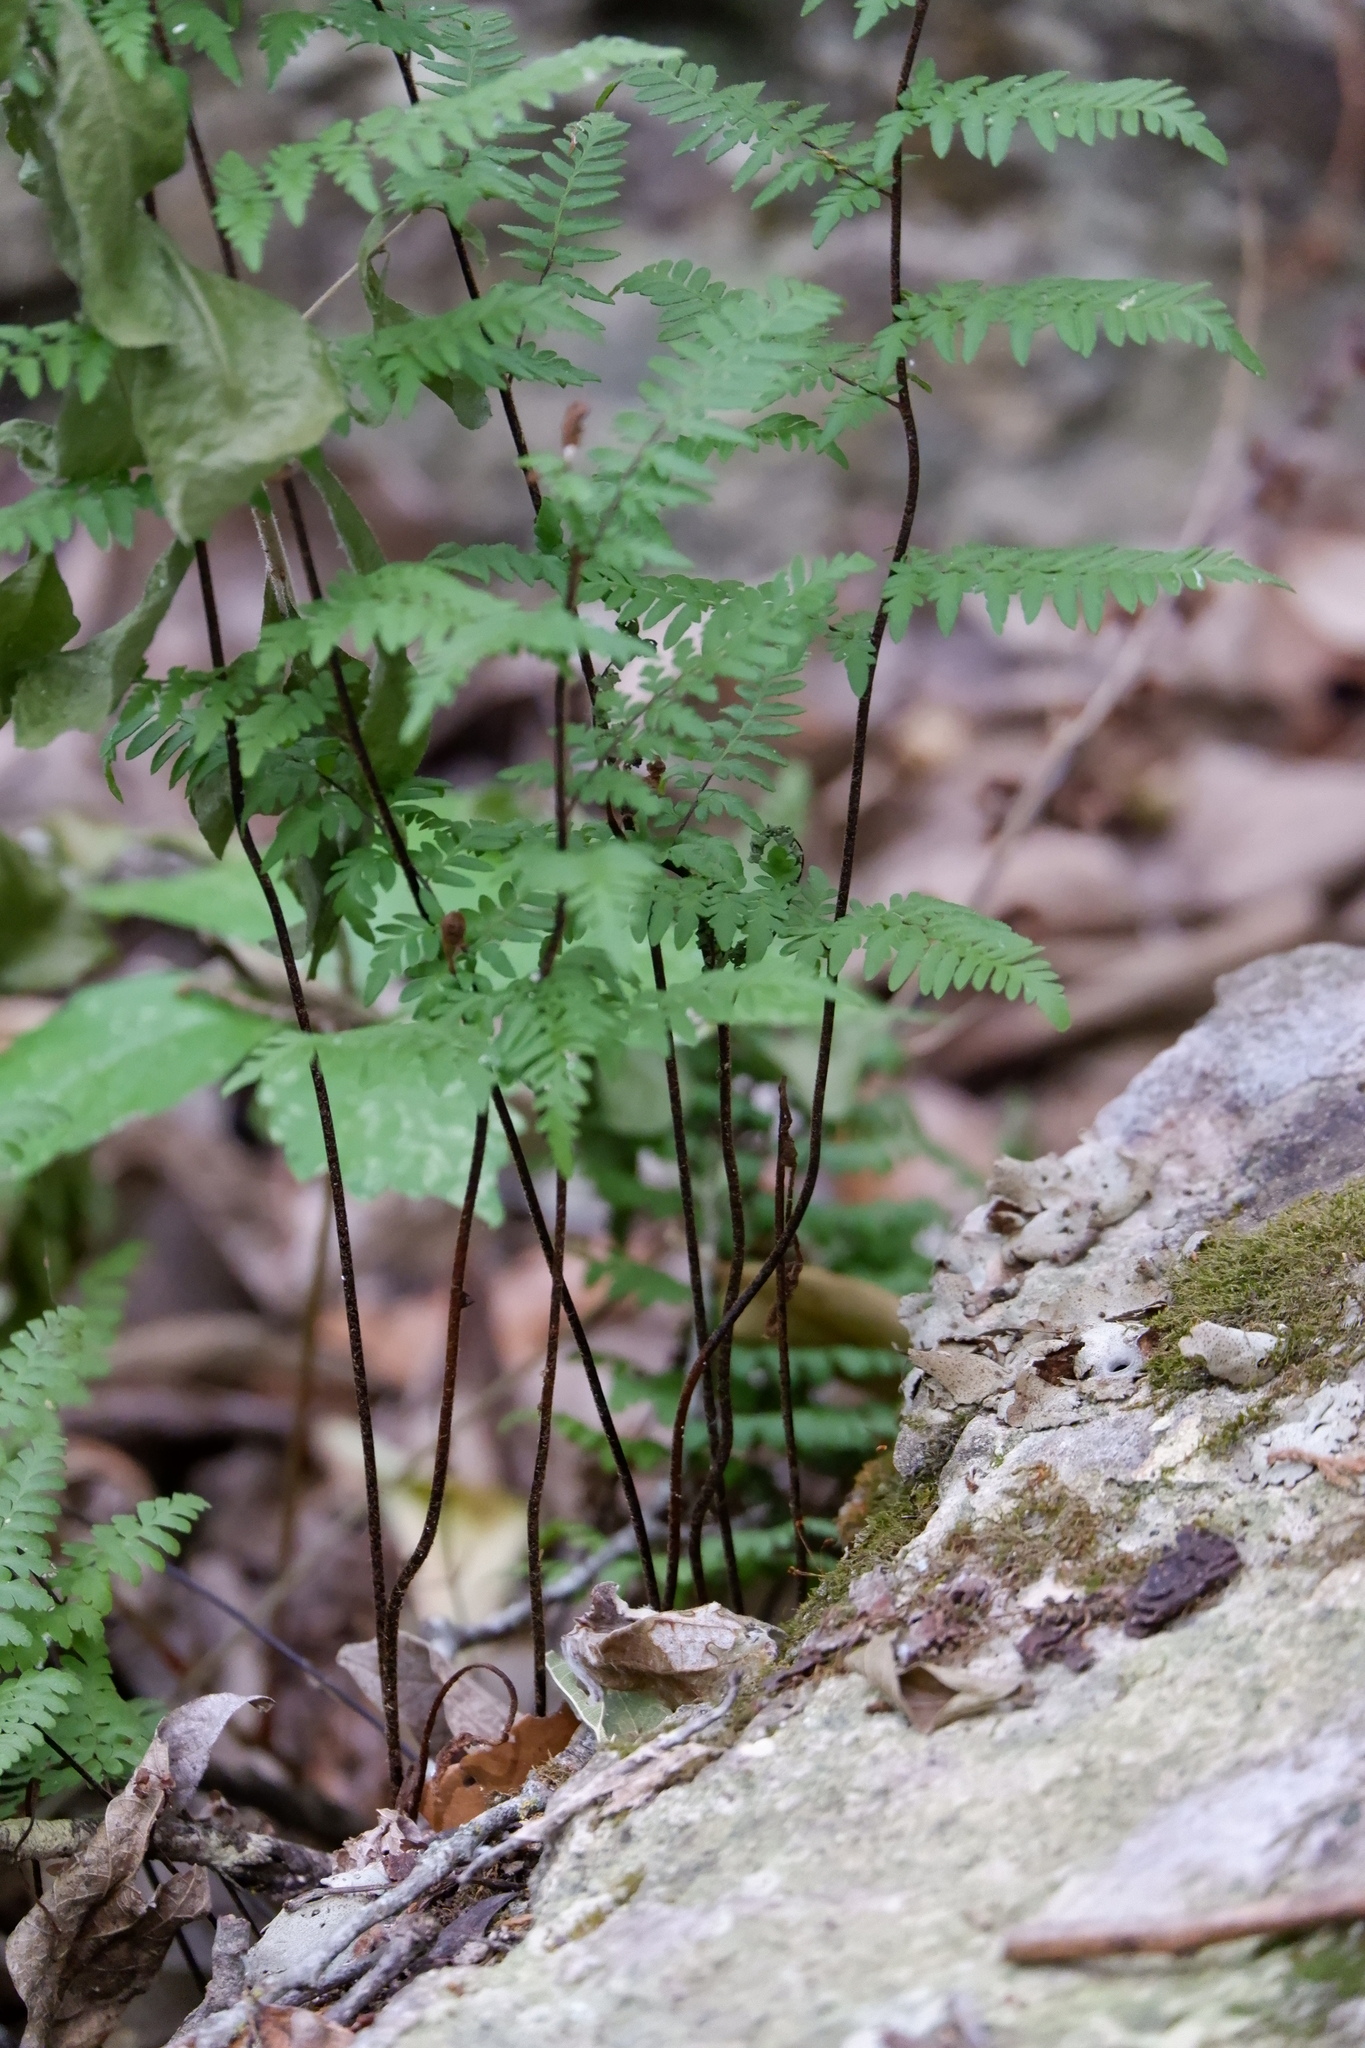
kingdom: Plantae
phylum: Tracheophyta
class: Polypodiopsida
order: Polypodiales
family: Pteridaceae
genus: Myriopteris
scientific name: Myriopteris alabamensis
